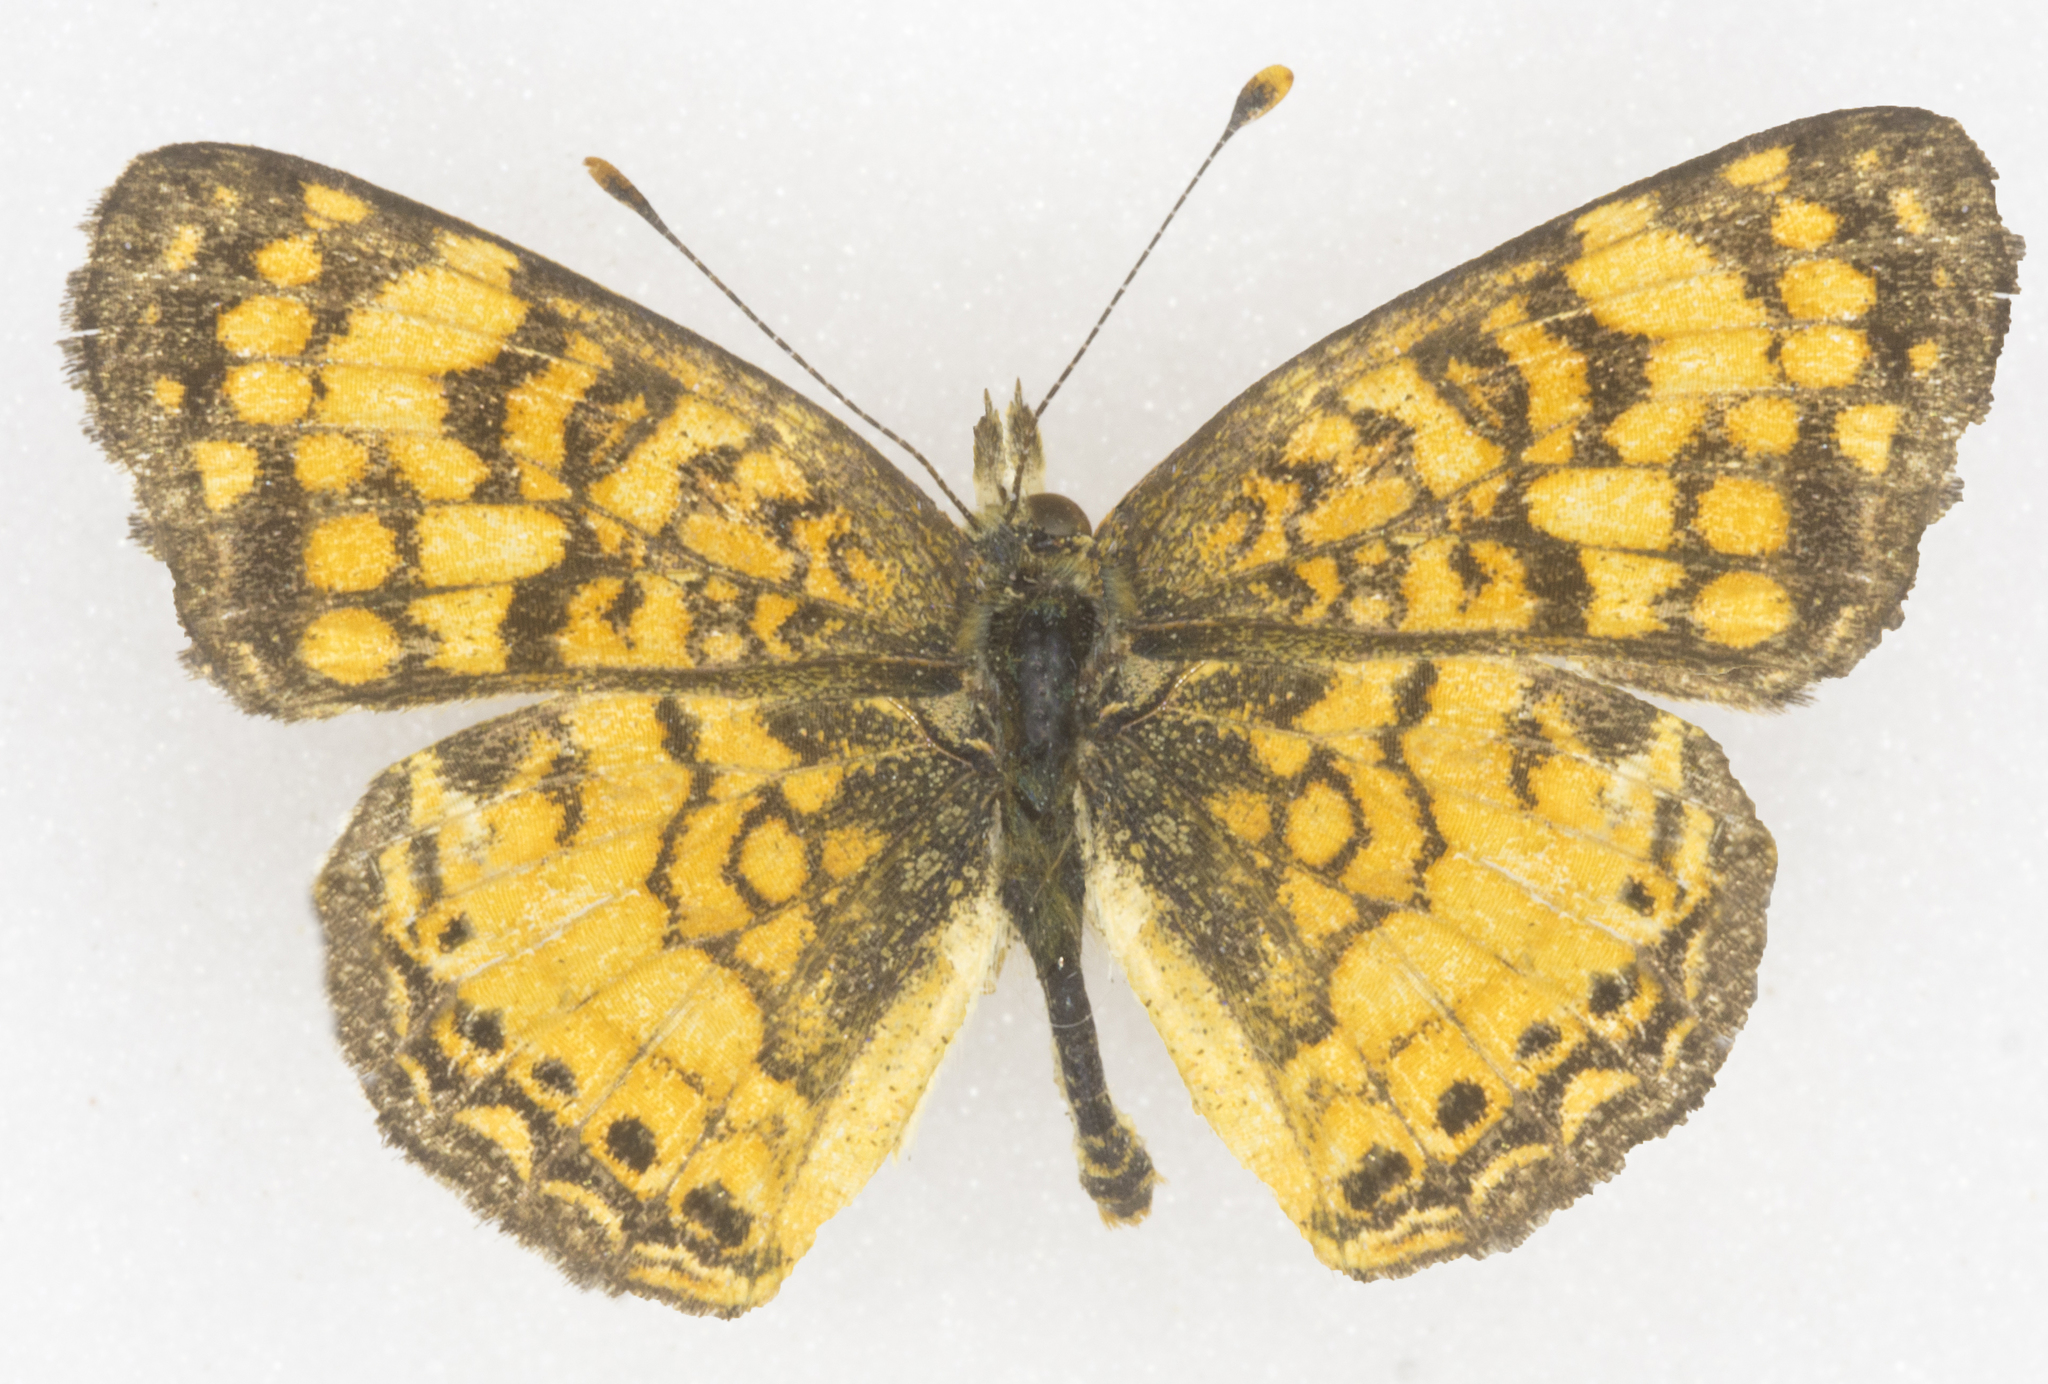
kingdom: Animalia
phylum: Arthropoda
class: Insecta
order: Lepidoptera
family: Nymphalidae
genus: Eresia
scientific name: Eresia aveyrona
